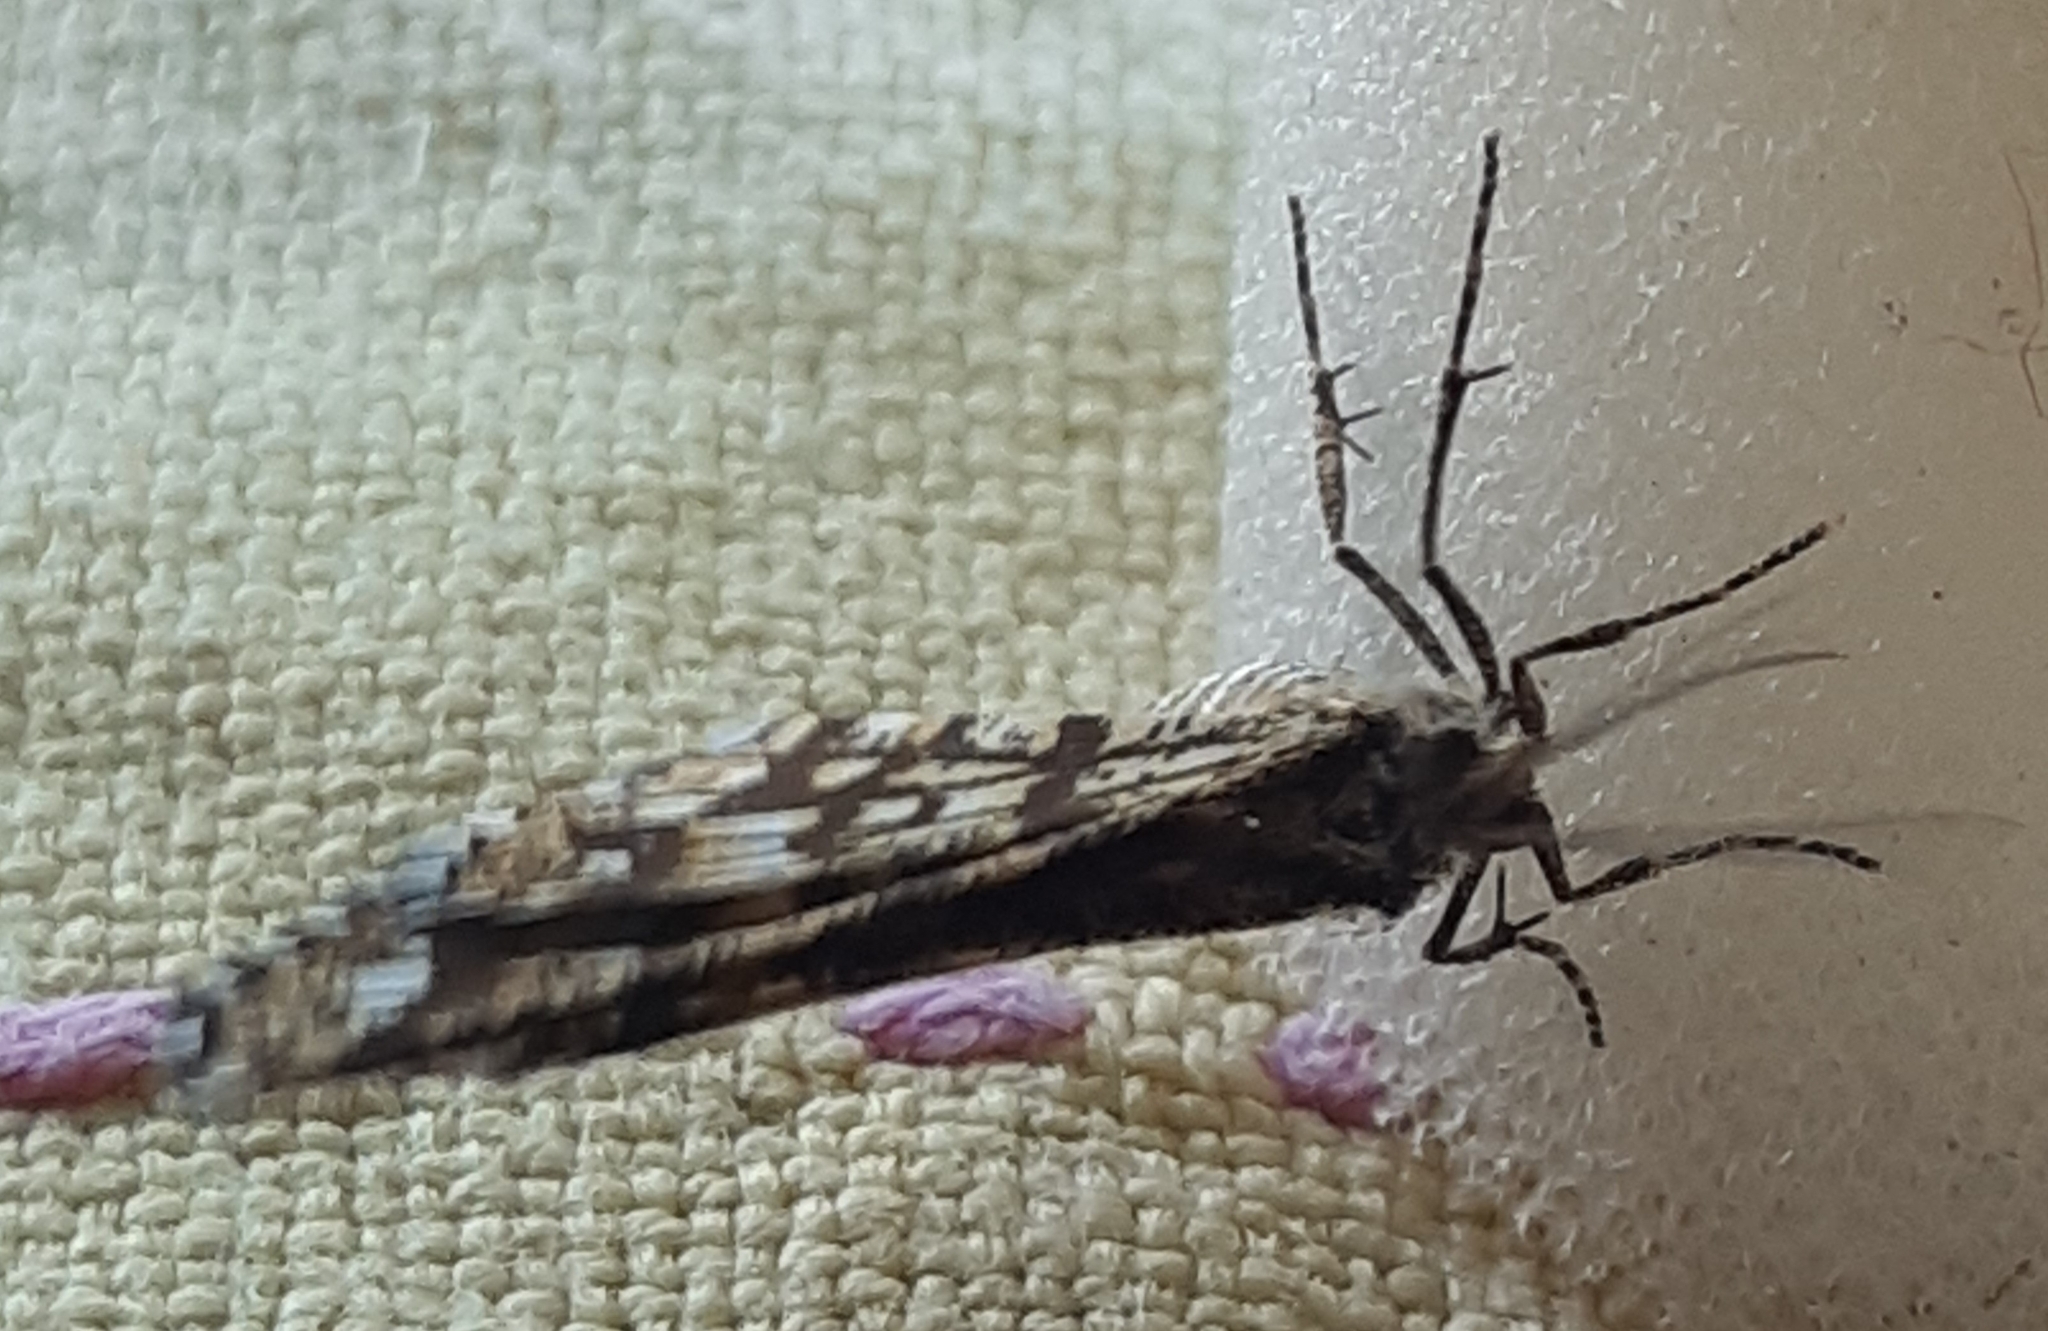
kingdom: Animalia
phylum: Arthropoda
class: Insecta
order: Lepidoptera
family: Geometridae
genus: Chiasmia
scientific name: Chiasmia clathrata
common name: Latticed heath
